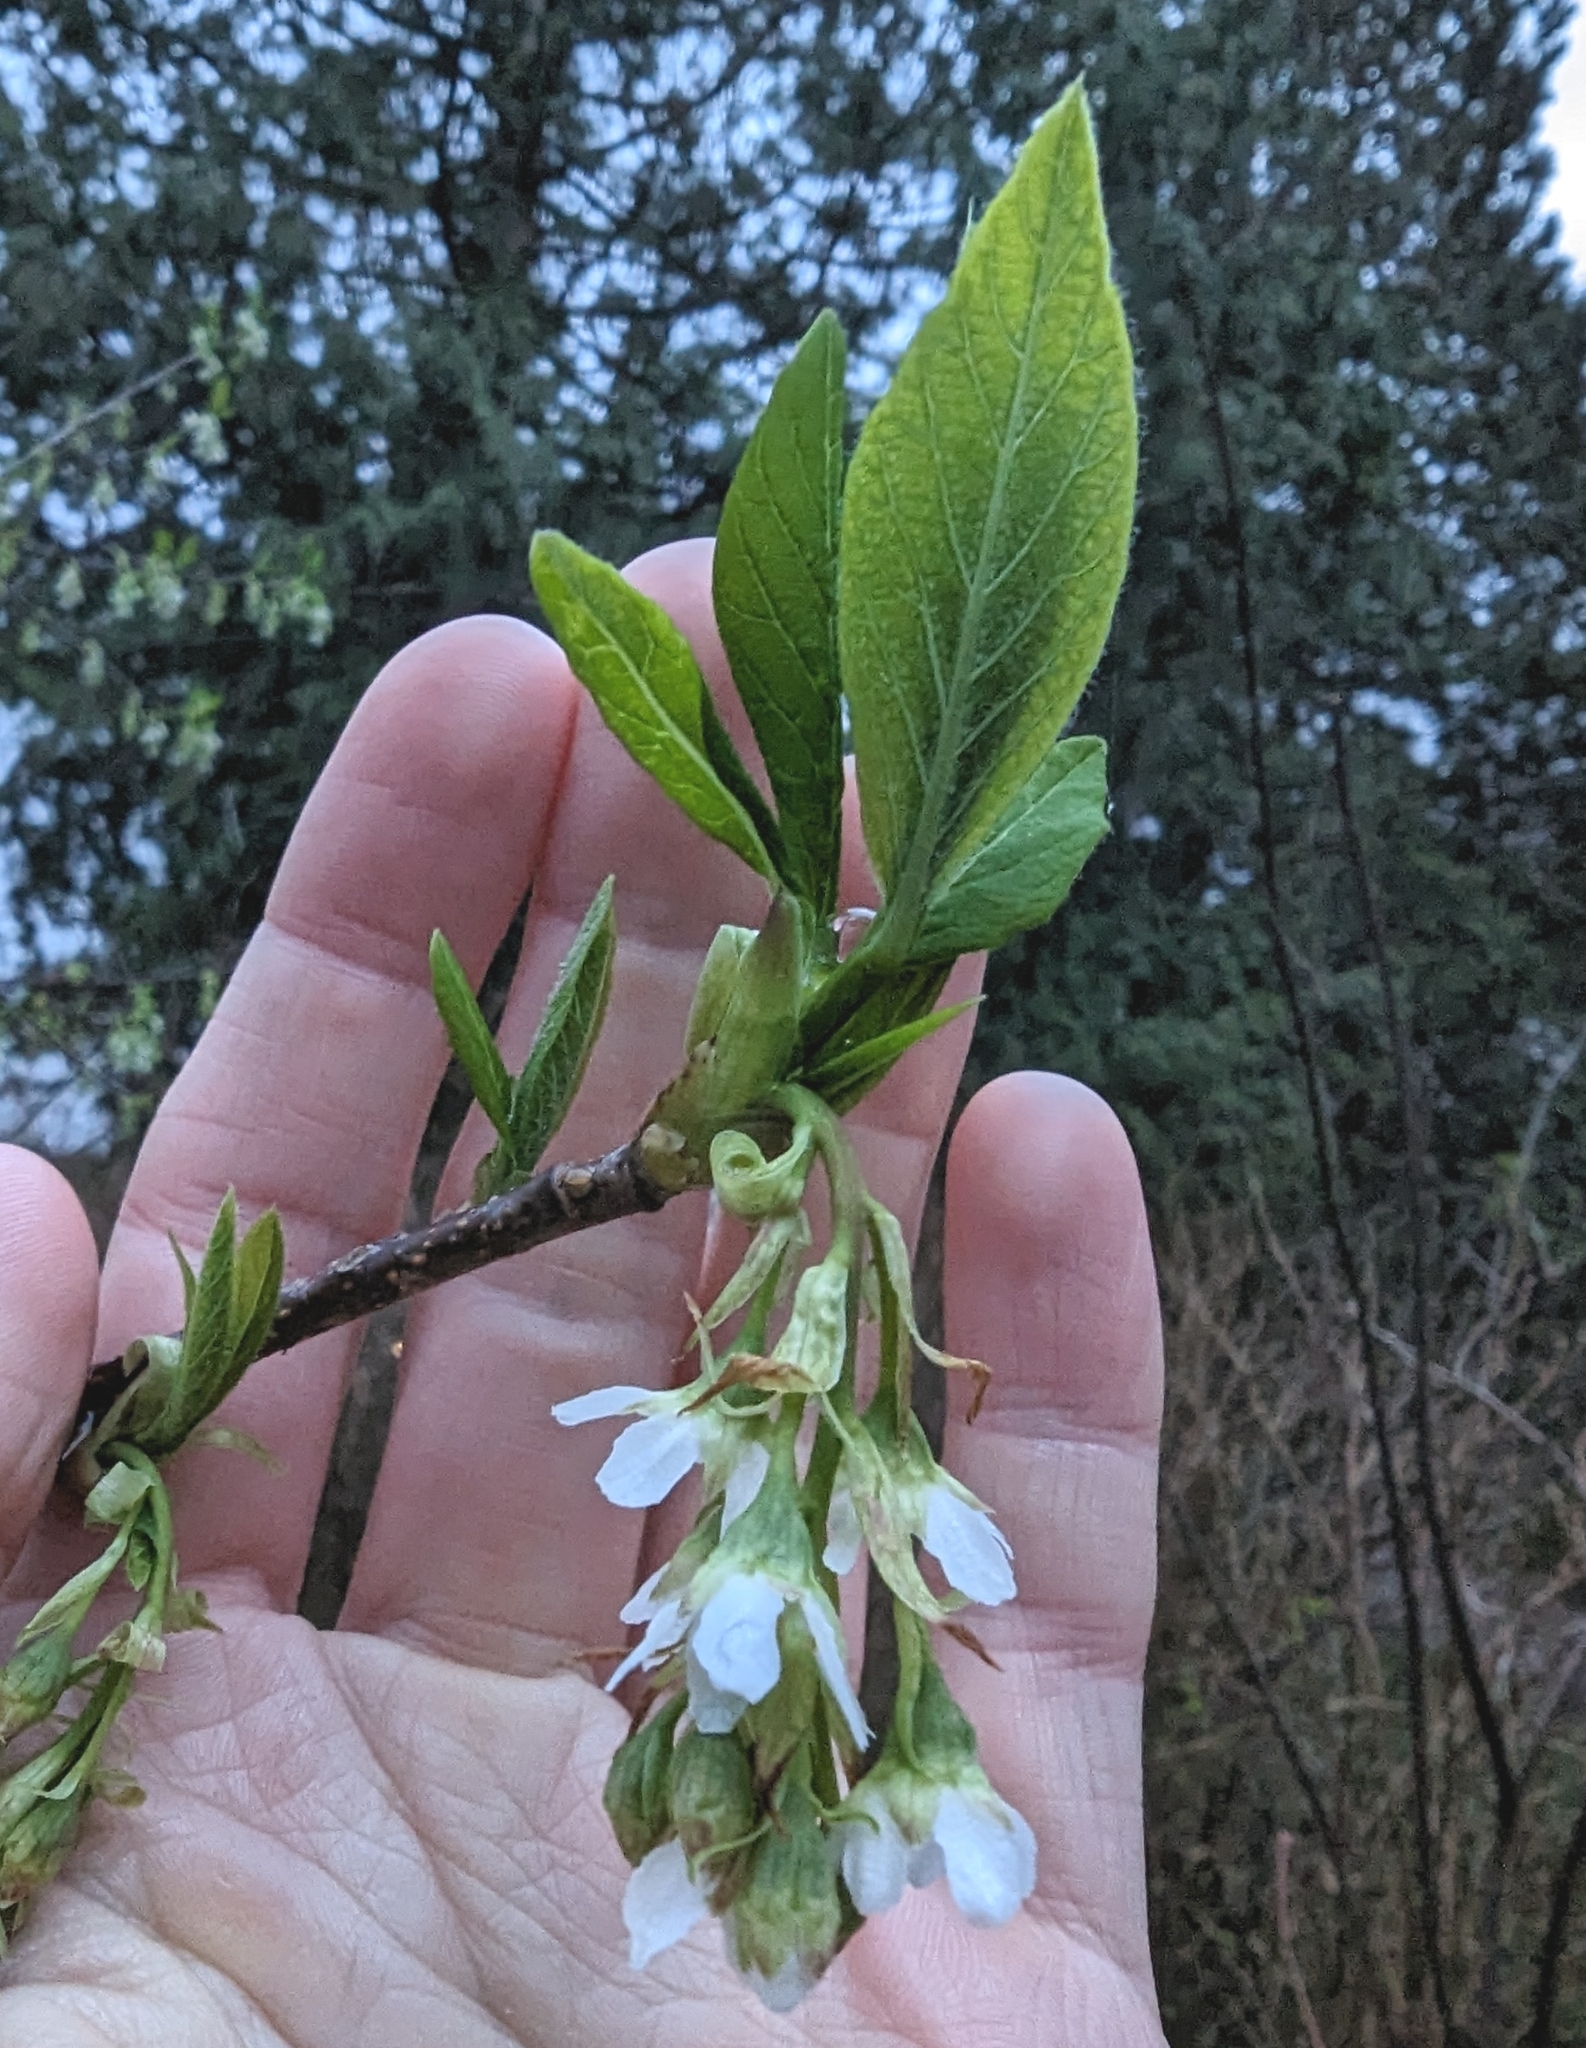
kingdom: Plantae
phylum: Tracheophyta
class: Magnoliopsida
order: Rosales
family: Rosaceae
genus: Oemleria
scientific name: Oemleria cerasiformis
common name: Osoberry
